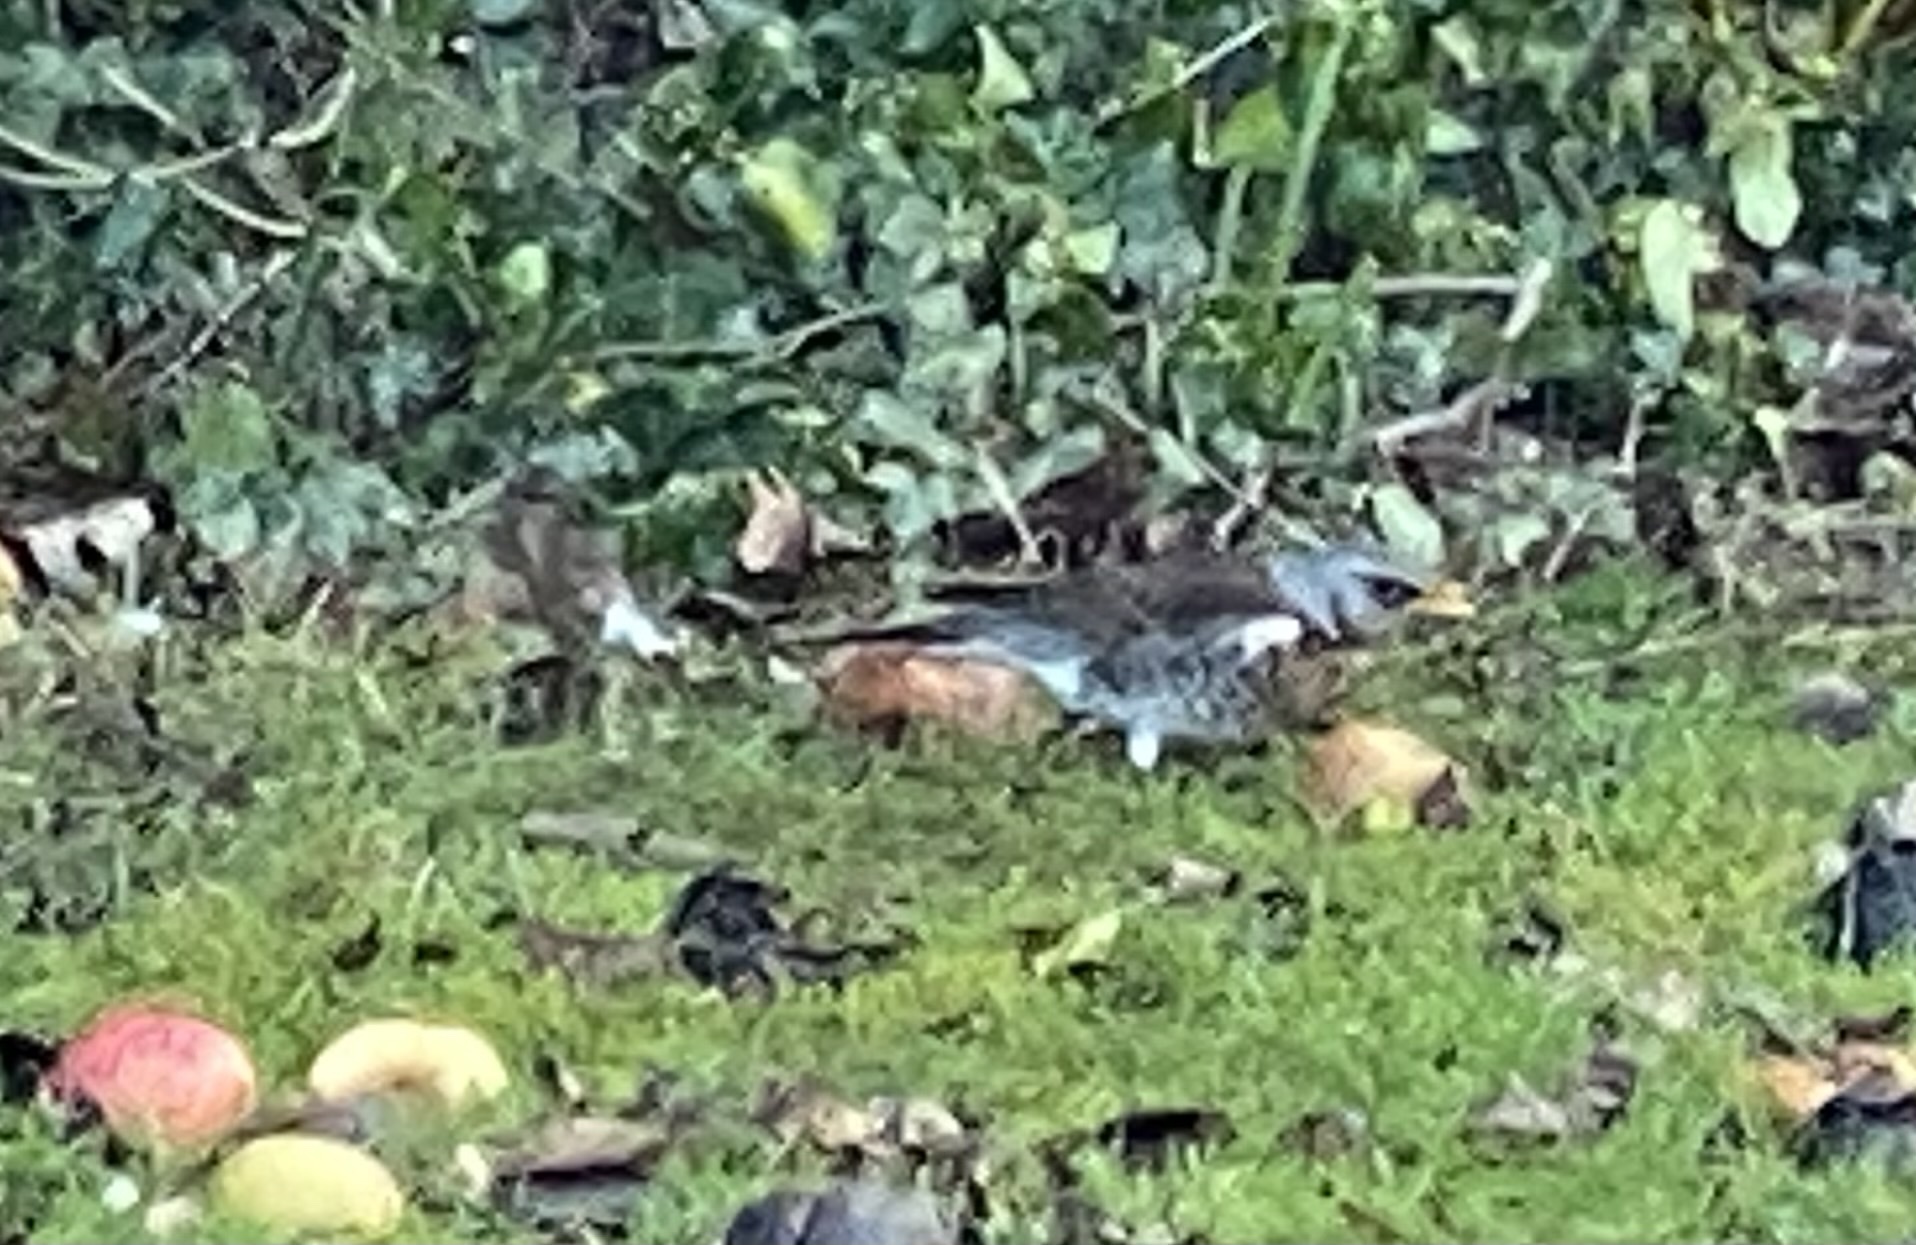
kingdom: Animalia
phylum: Chordata
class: Aves
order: Passeriformes
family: Turdidae
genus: Turdus
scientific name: Turdus pilaris
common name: Fieldfare
